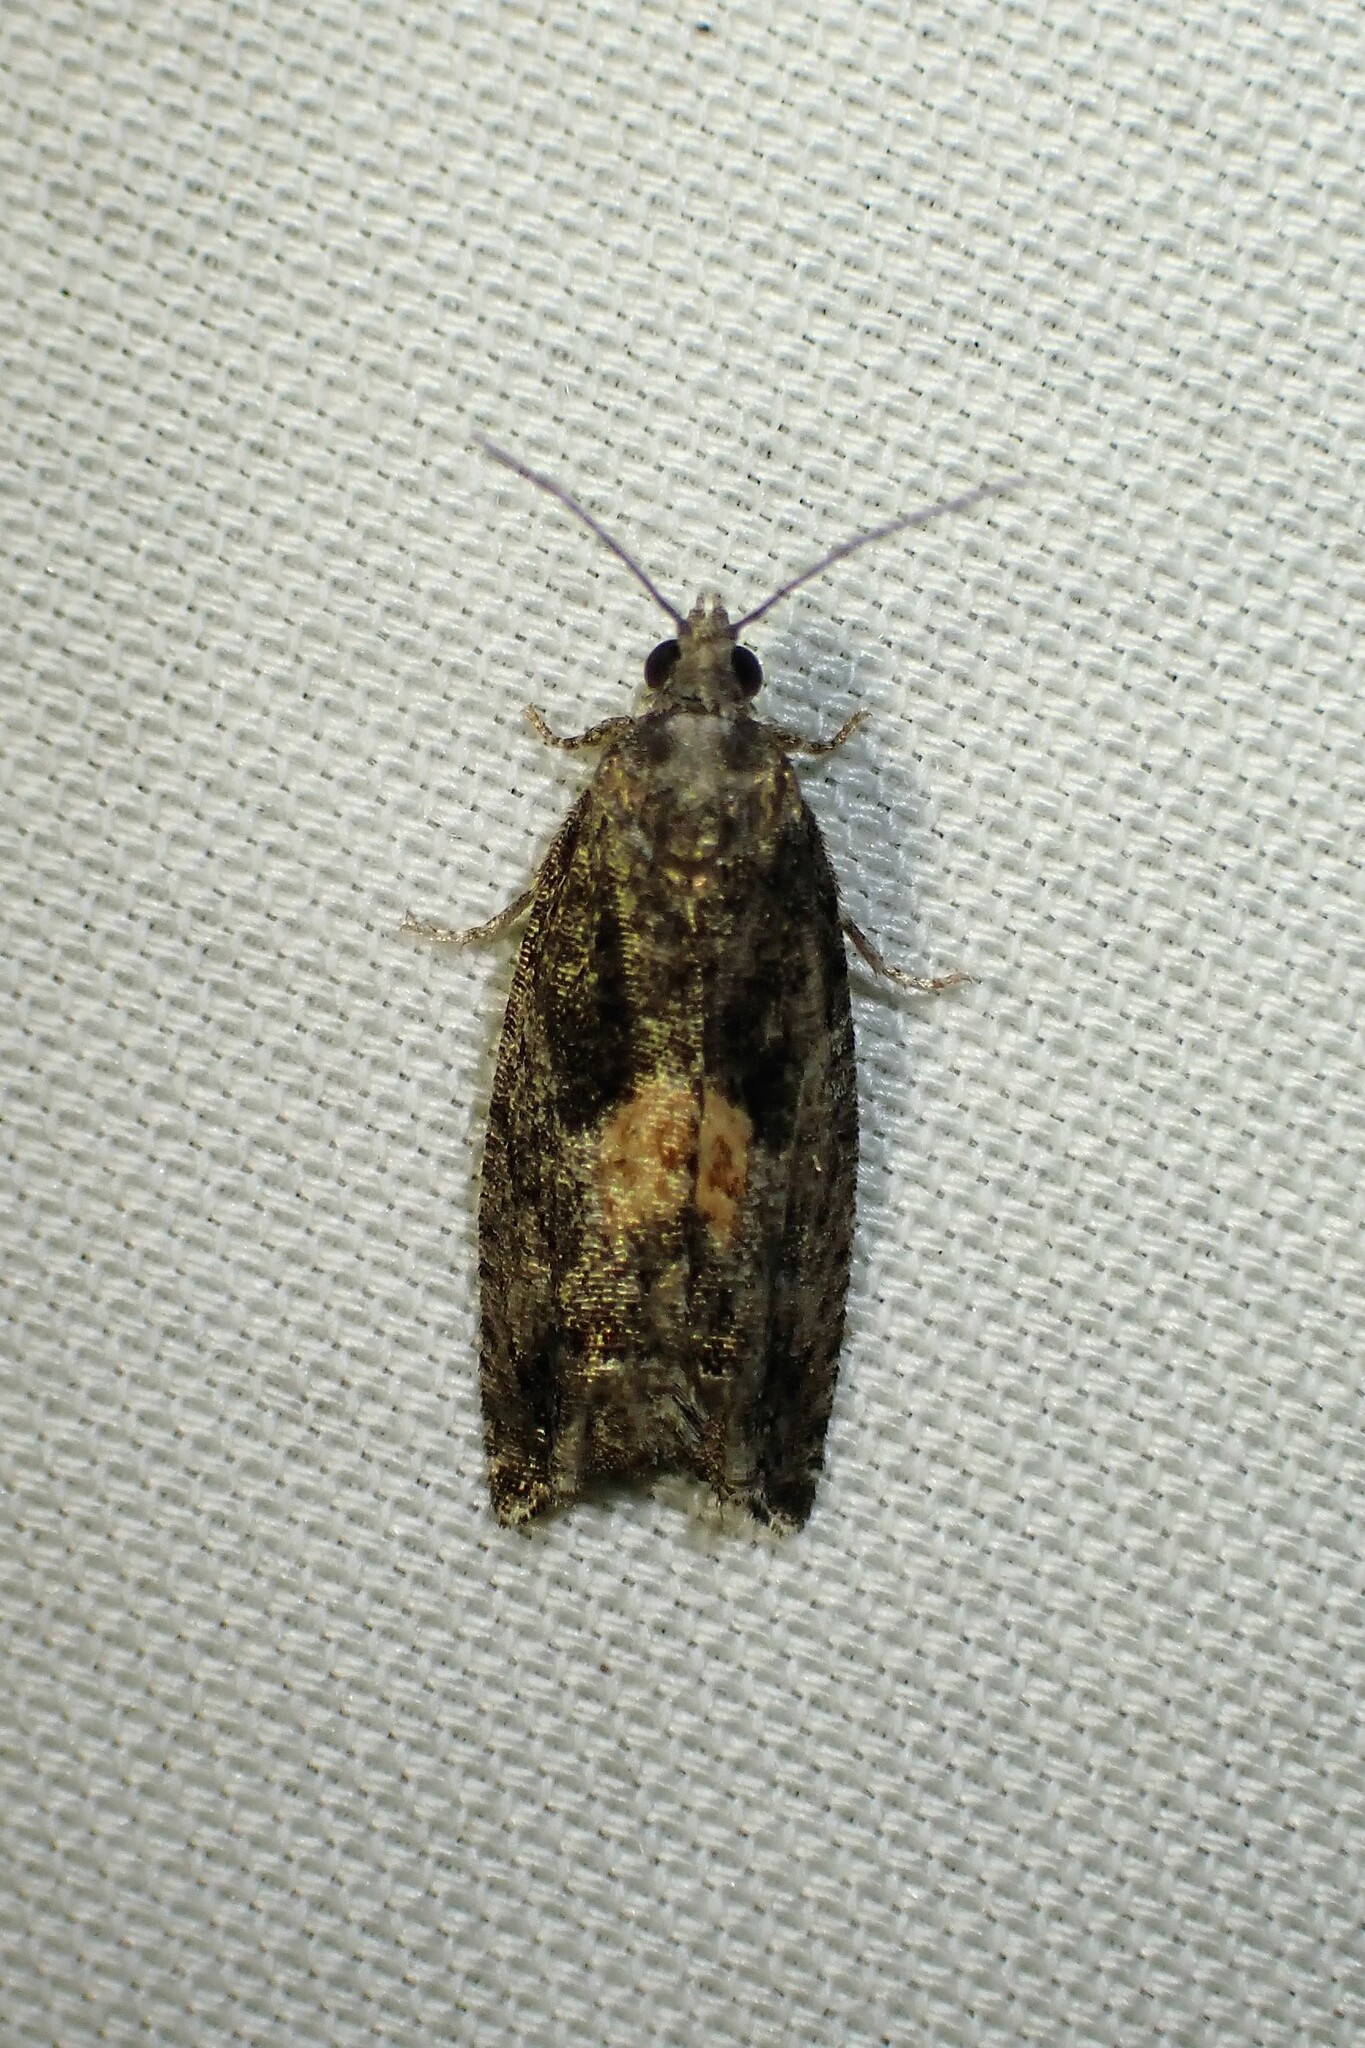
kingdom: Animalia
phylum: Arthropoda
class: Insecta
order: Lepidoptera
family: Tortricidae
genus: Epinotia
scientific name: Epinotia nisella
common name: Grey poplar bell
